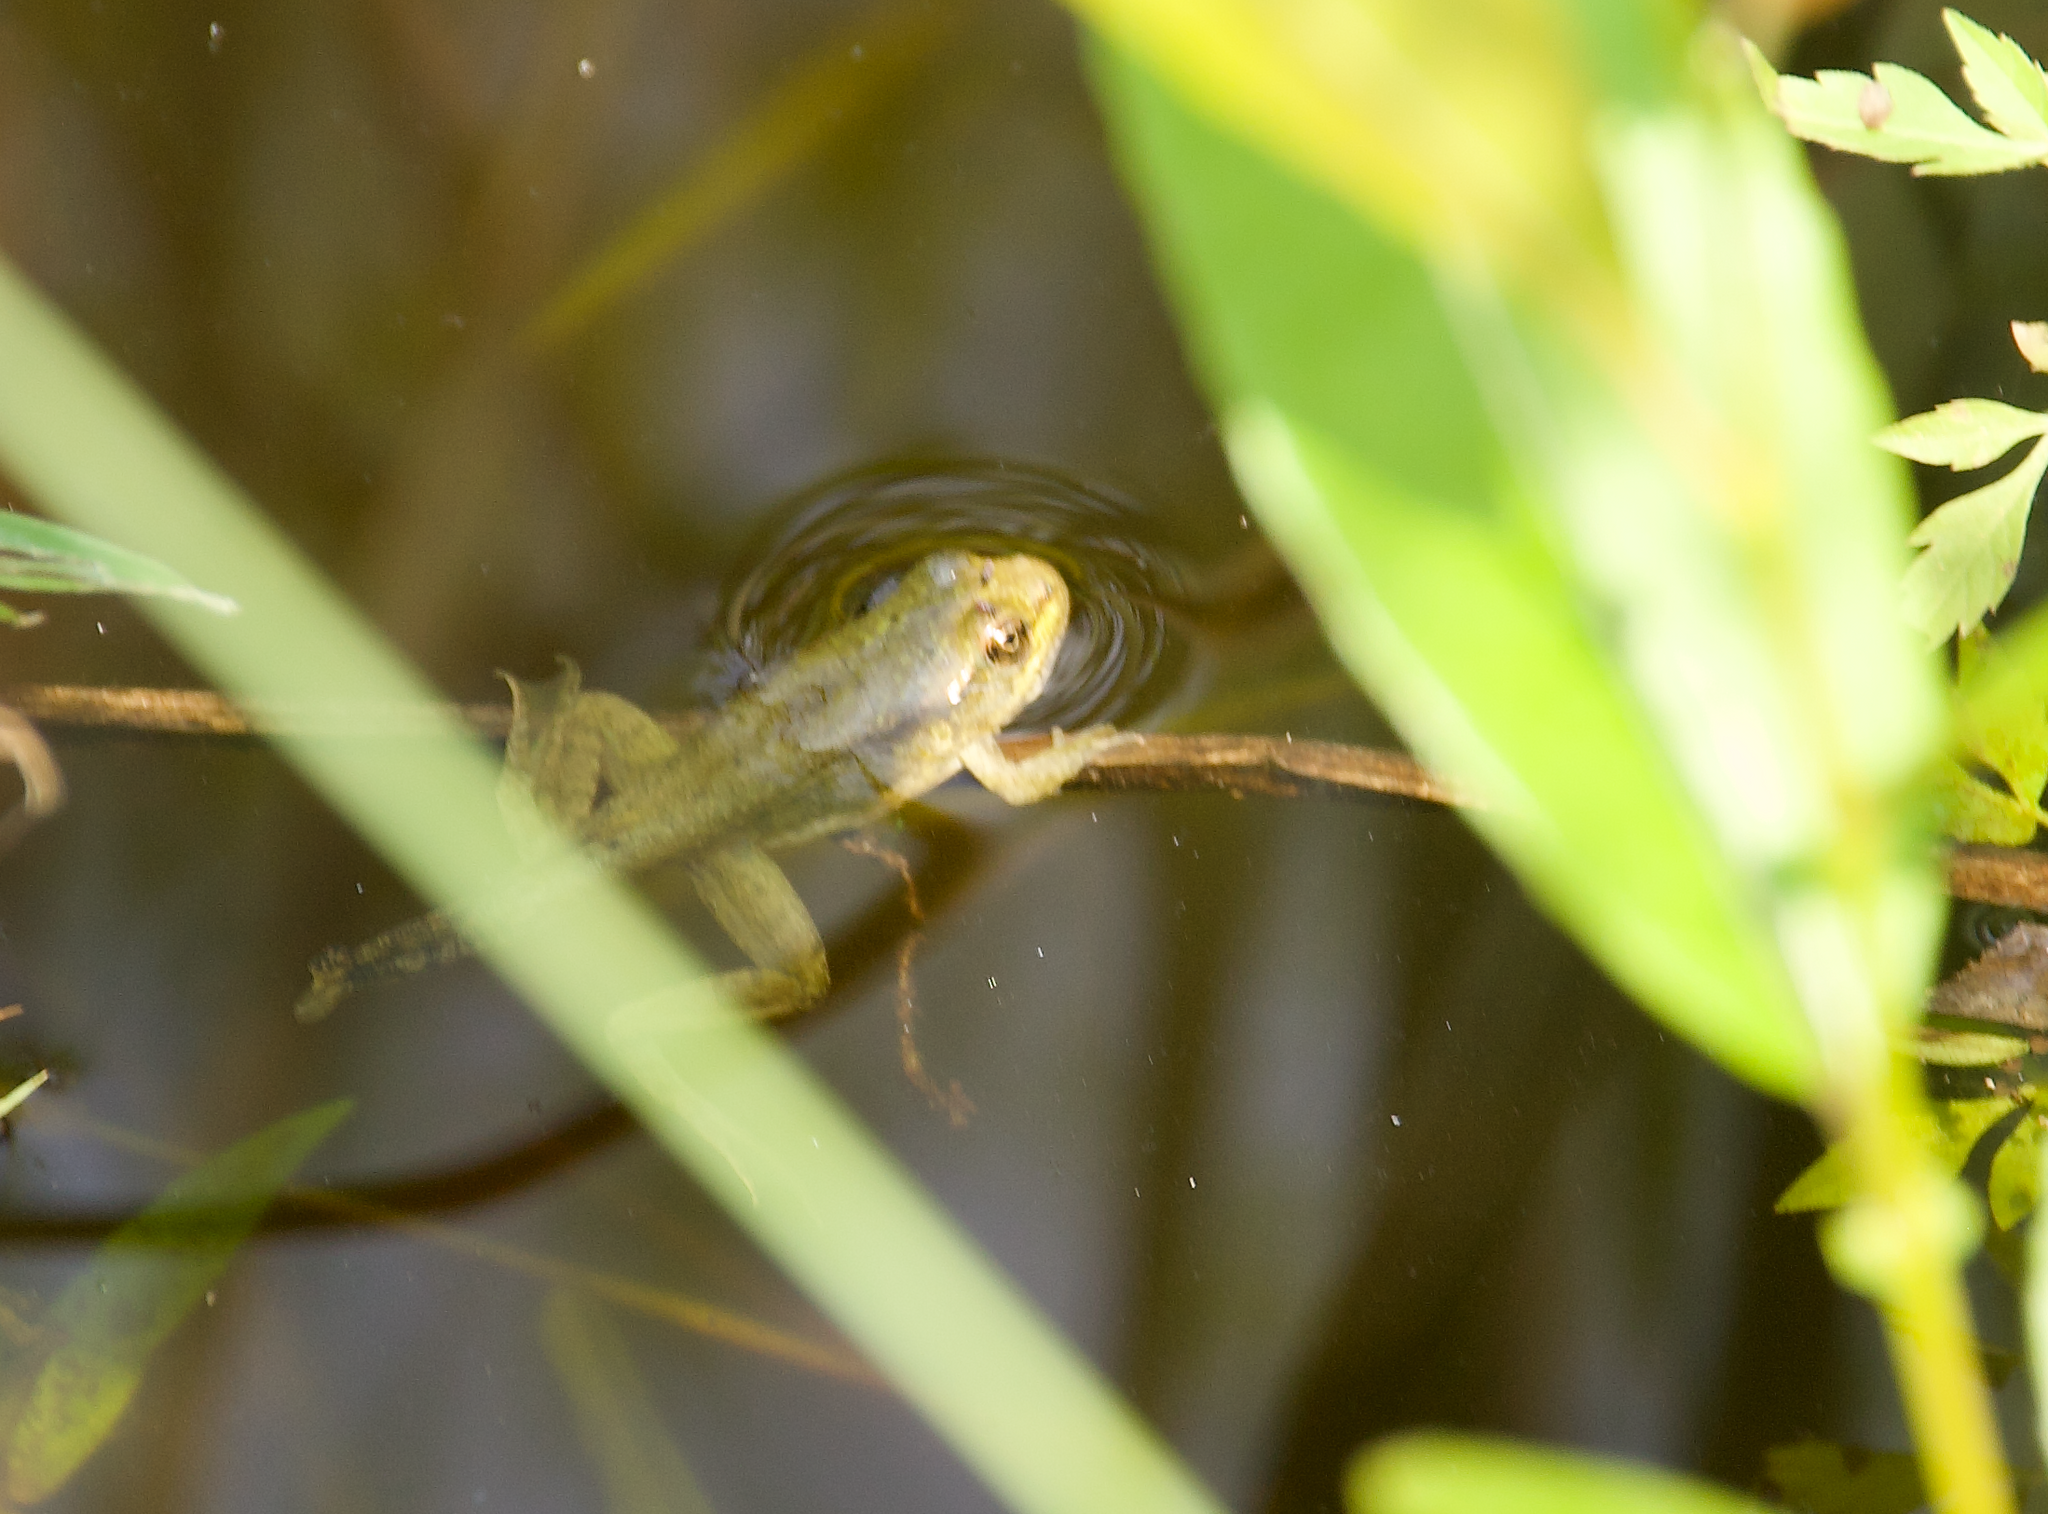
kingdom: Animalia
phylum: Chordata
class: Amphibia
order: Anura
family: Ranidae
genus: Lithobates
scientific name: Lithobates clamitans
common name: Green frog
